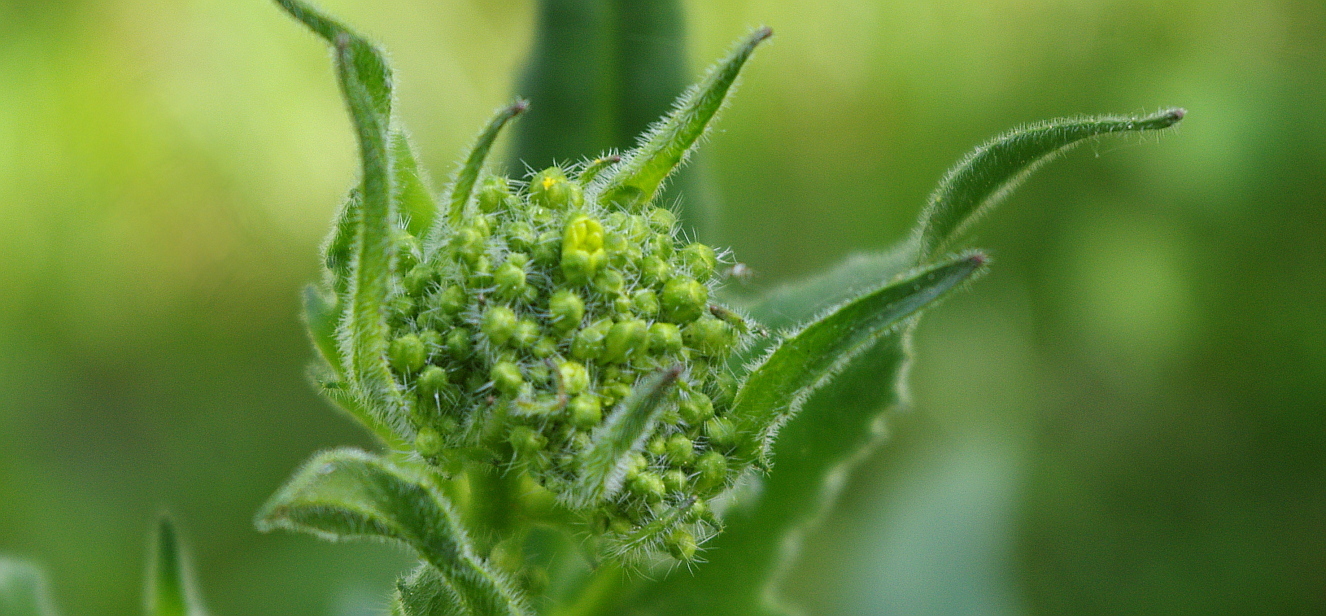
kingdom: Plantae
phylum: Tracheophyta
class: Magnoliopsida
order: Brassicales
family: Brassicaceae
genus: Bunias
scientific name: Bunias orientalis
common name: Warty-cabbage
